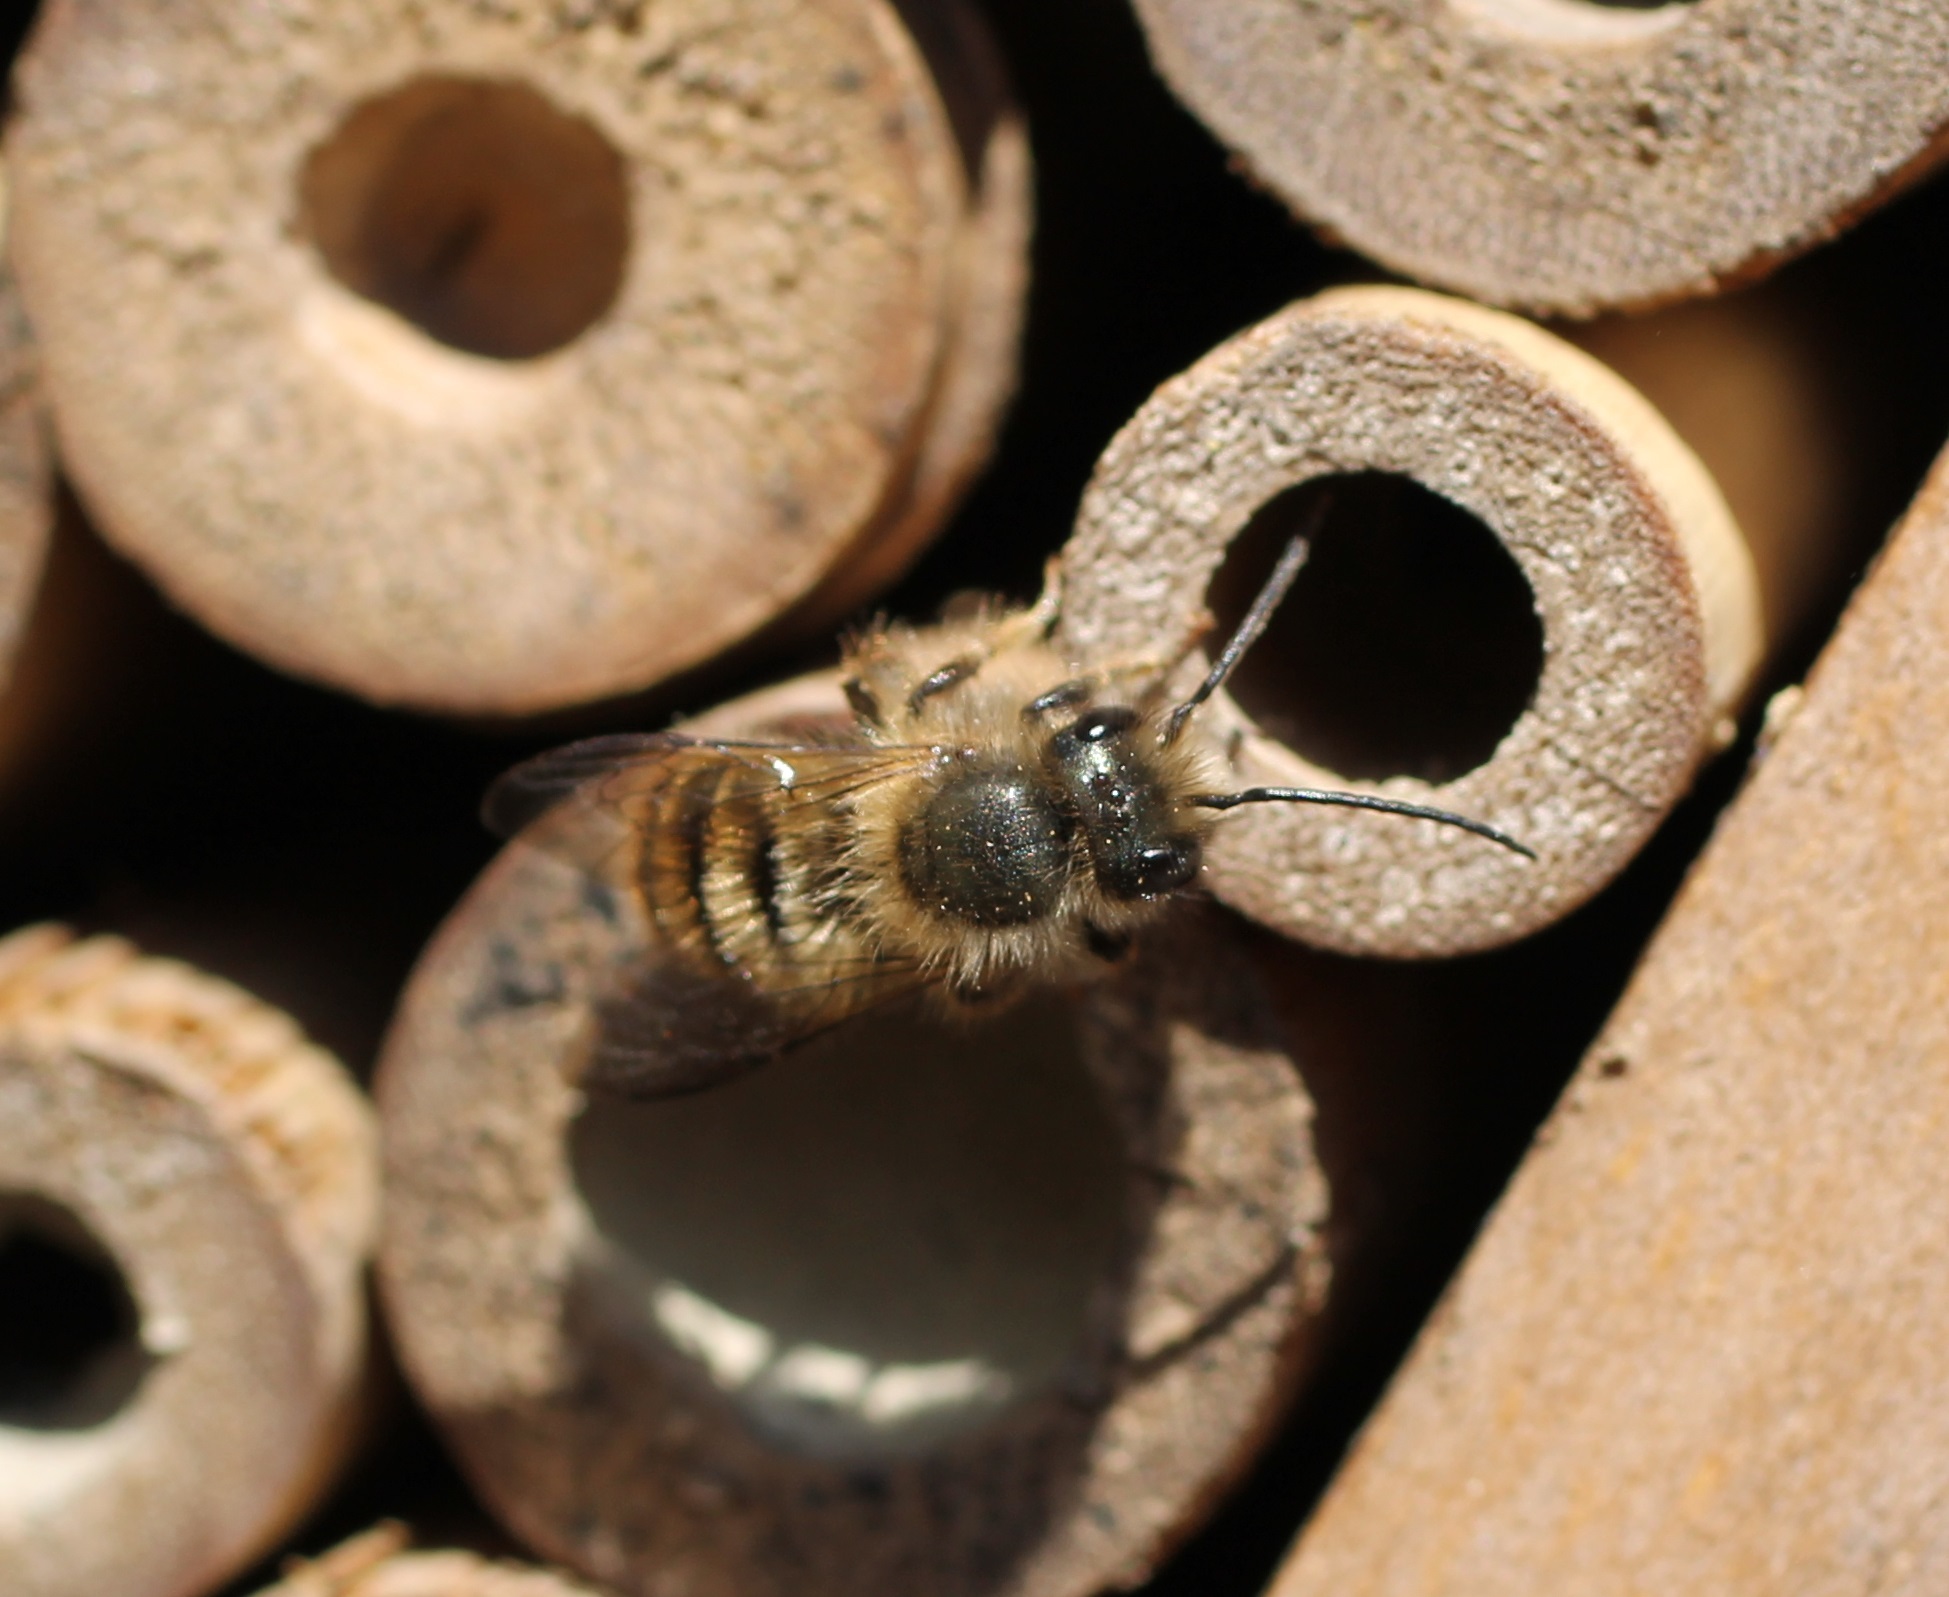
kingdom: Animalia
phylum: Arthropoda
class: Insecta
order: Hymenoptera
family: Megachilidae
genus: Osmia
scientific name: Osmia
